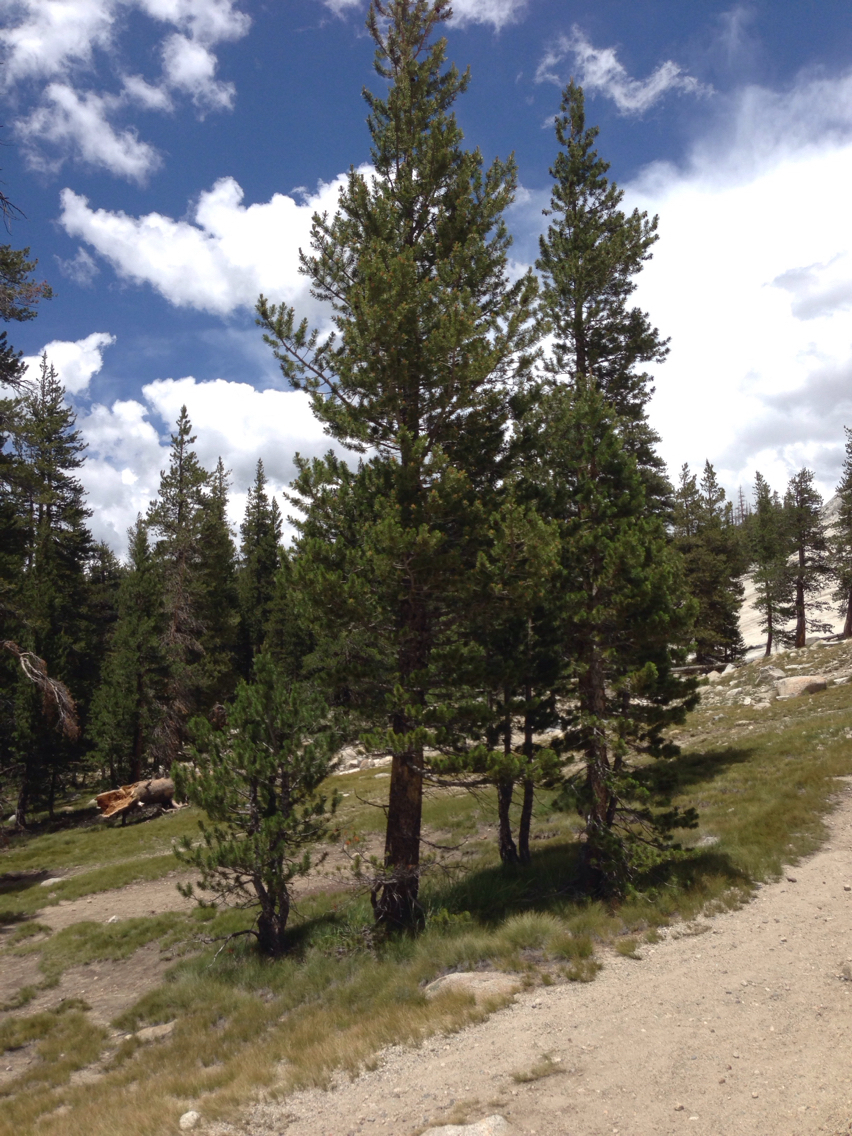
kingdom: Plantae
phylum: Tracheophyta
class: Pinopsida
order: Pinales
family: Pinaceae
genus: Pinus
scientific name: Pinus contorta
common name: Lodgepole pine
